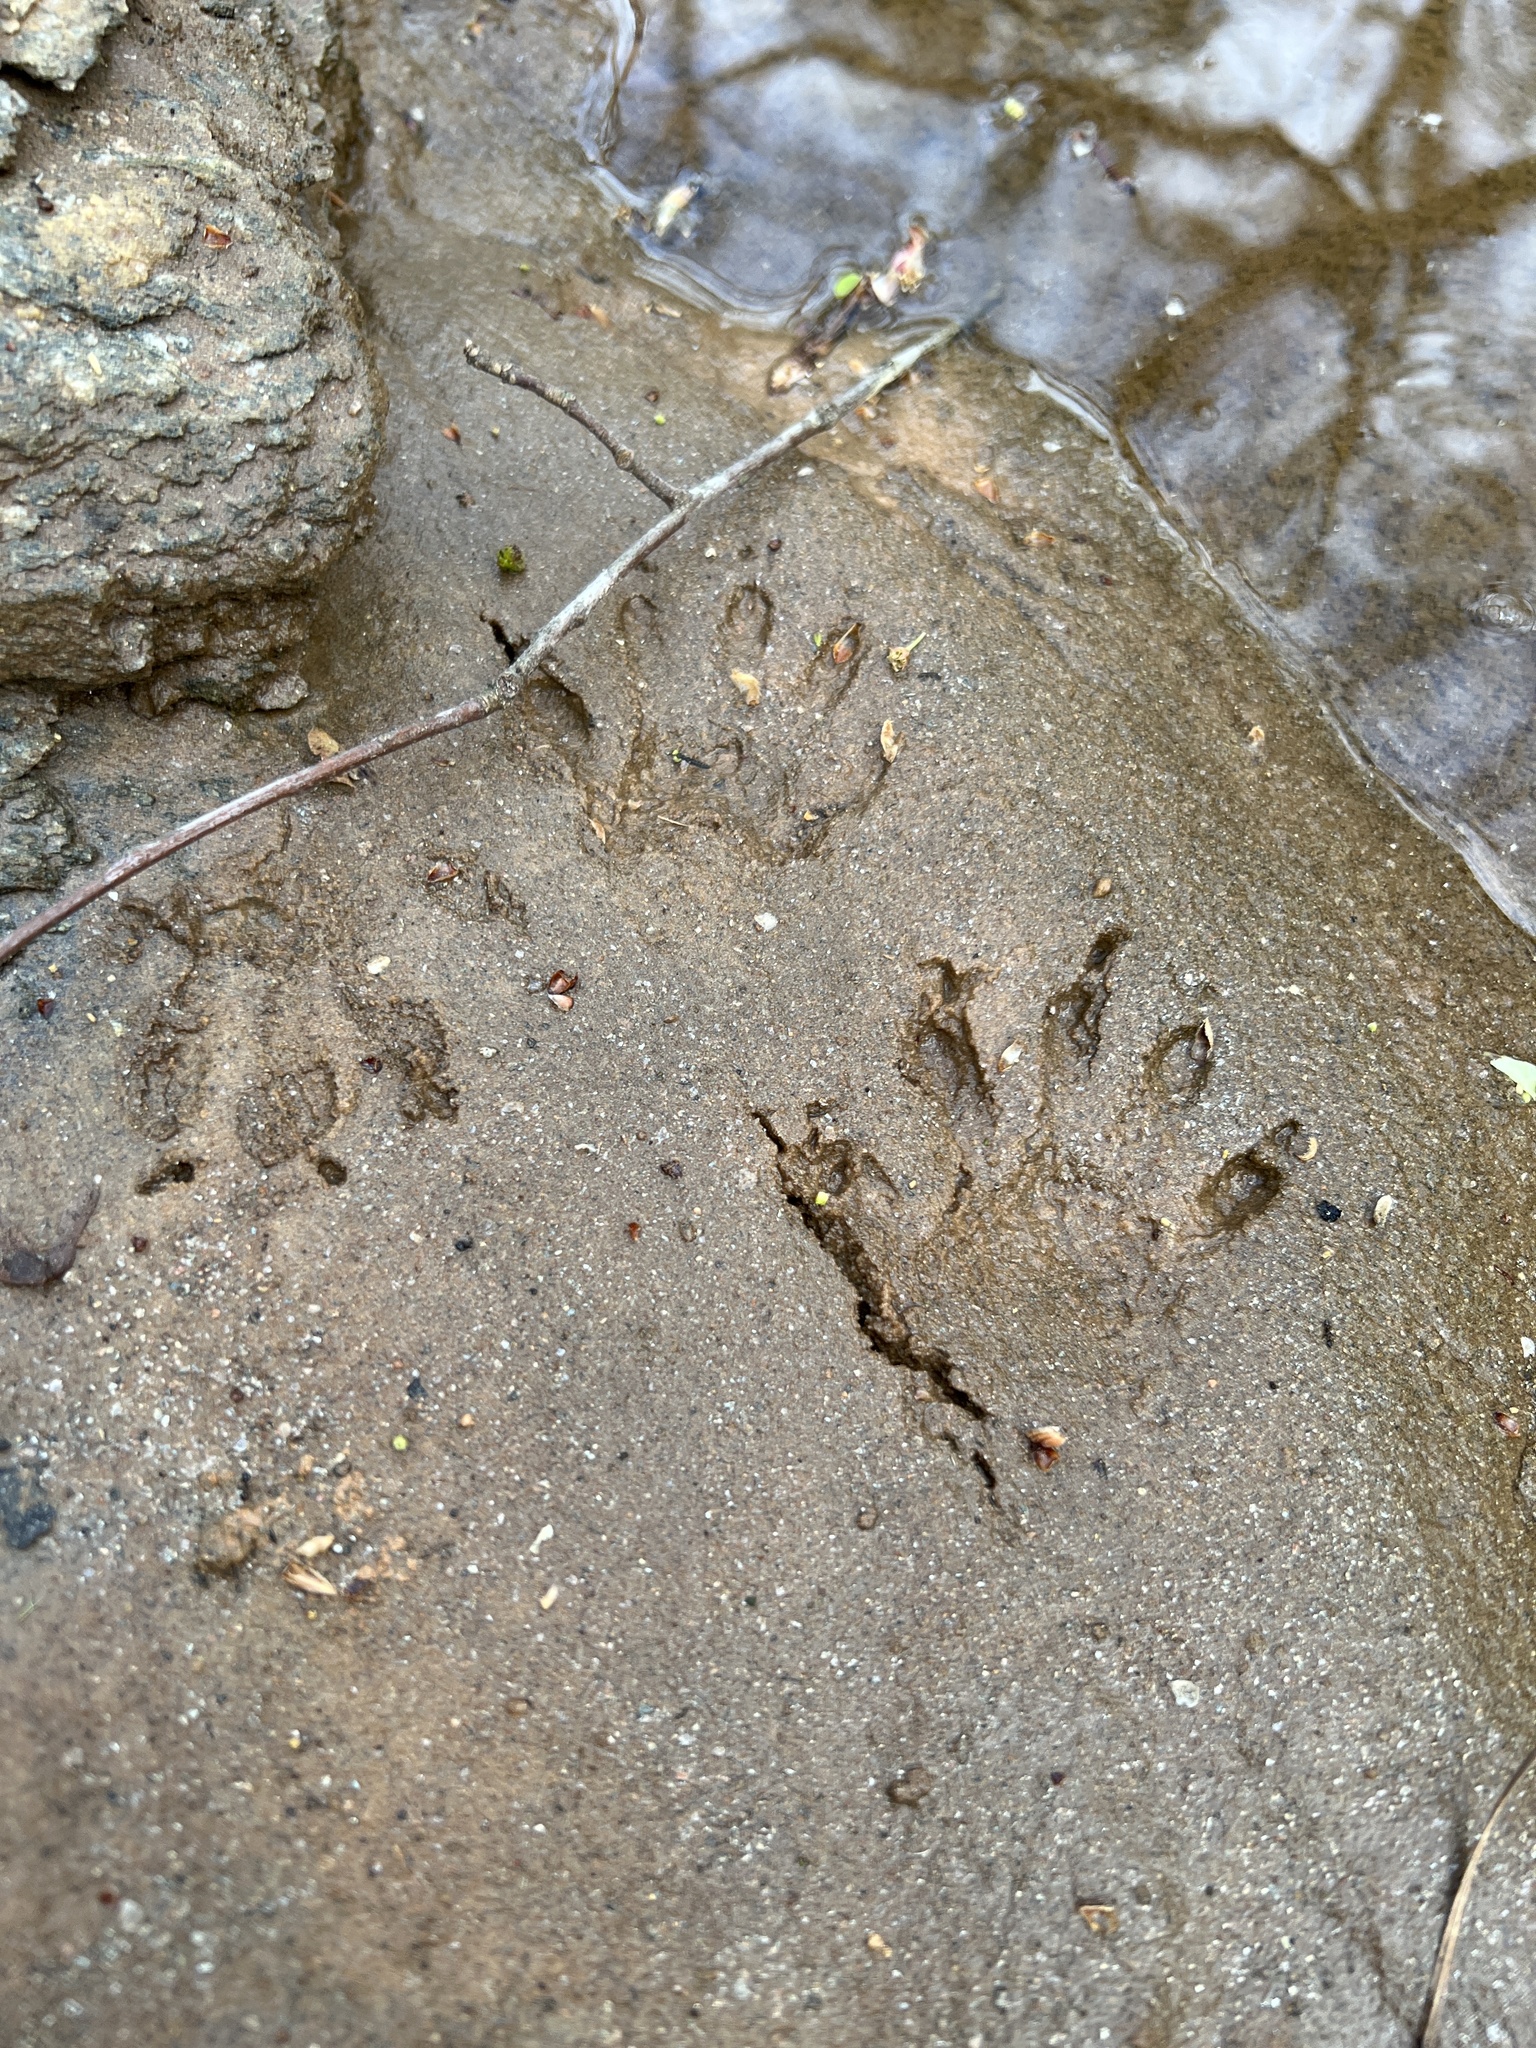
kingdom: Animalia
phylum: Chordata
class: Mammalia
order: Carnivora
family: Procyonidae
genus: Procyon
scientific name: Procyon lotor
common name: Raccoon
